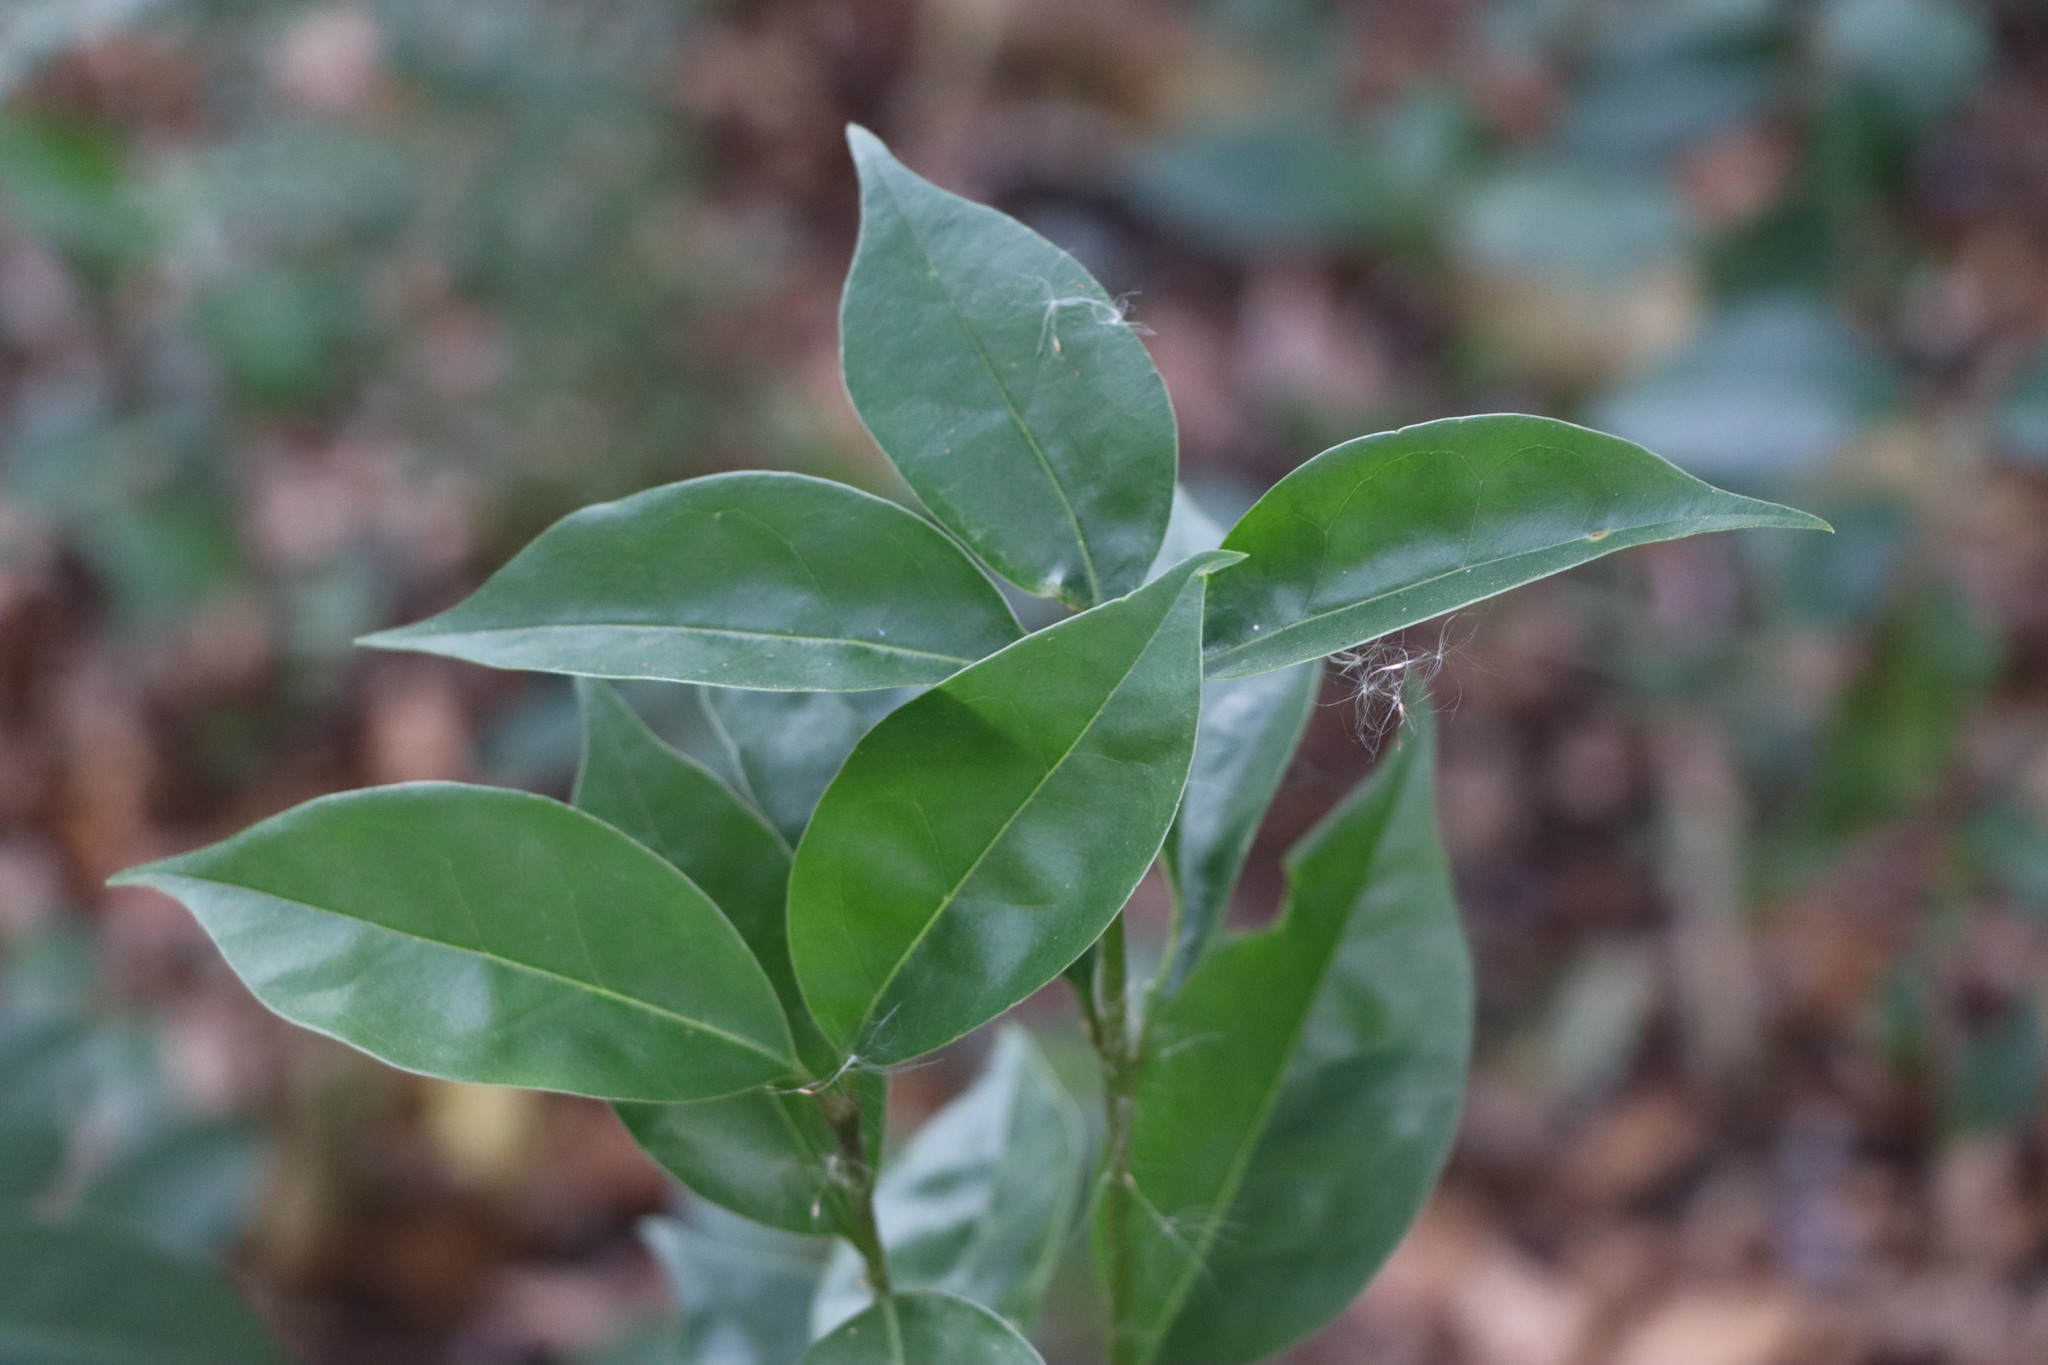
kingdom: Plantae
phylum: Tracheophyta
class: Magnoliopsida
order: Lamiales
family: Oleaceae
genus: Ligustrum
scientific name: Ligustrum lucidum
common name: Glossy privet
